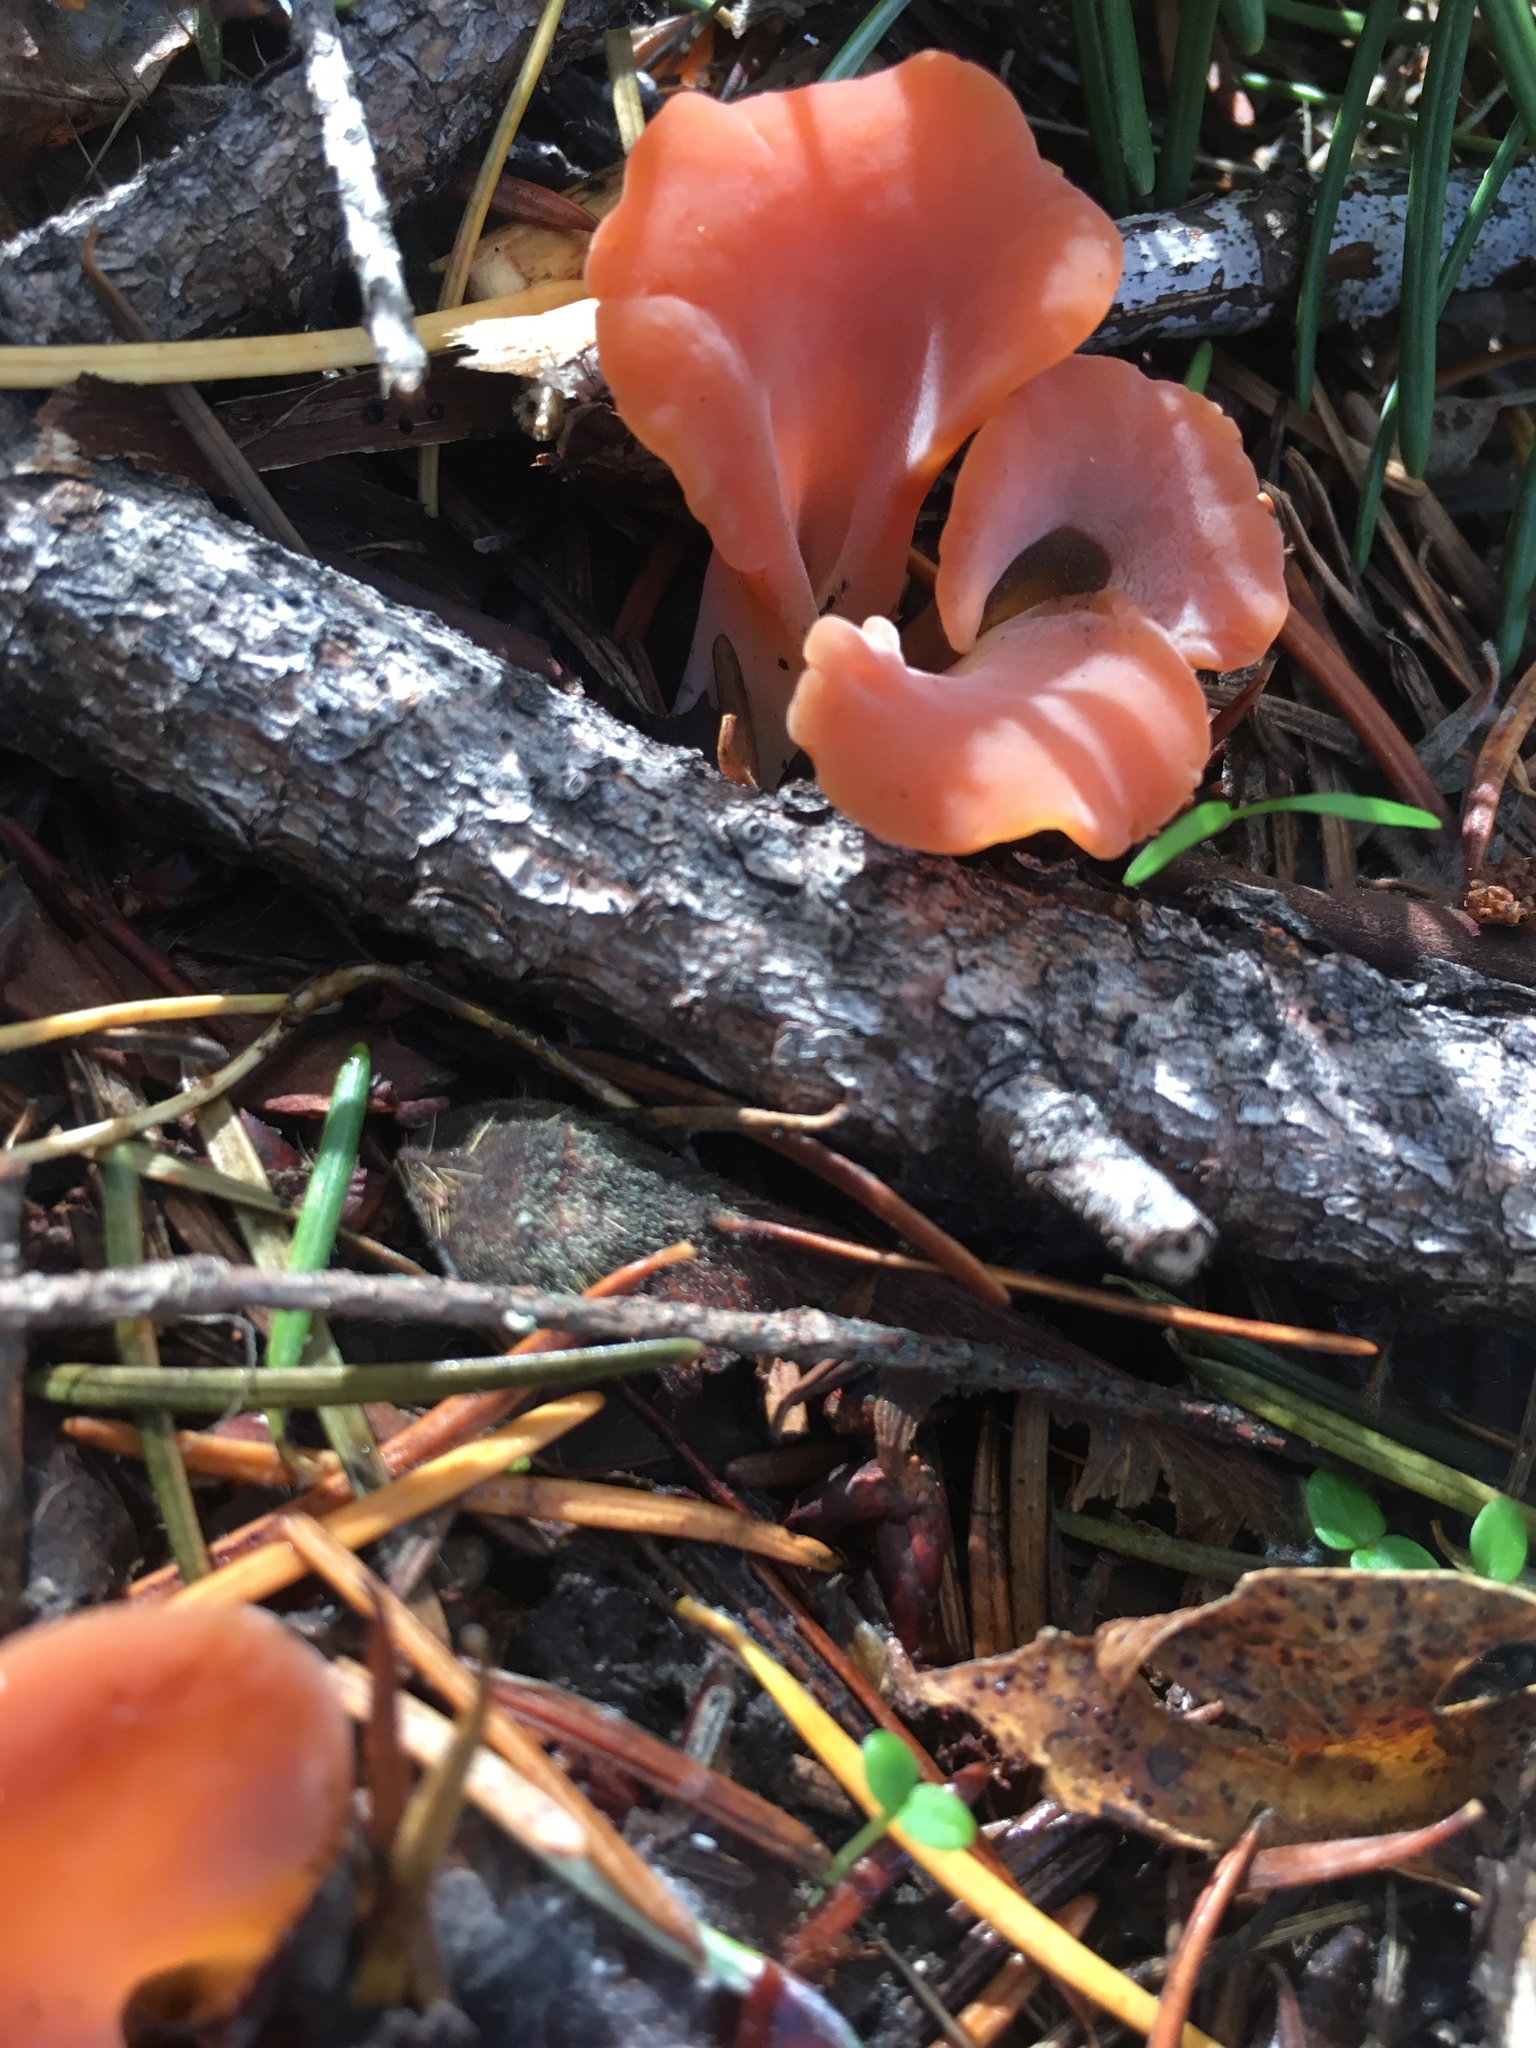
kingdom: Fungi
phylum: Basidiomycota
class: Agaricomycetes
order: Auriculariales
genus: Guepinia
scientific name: Guepinia helvelloides
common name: Salmon salad
